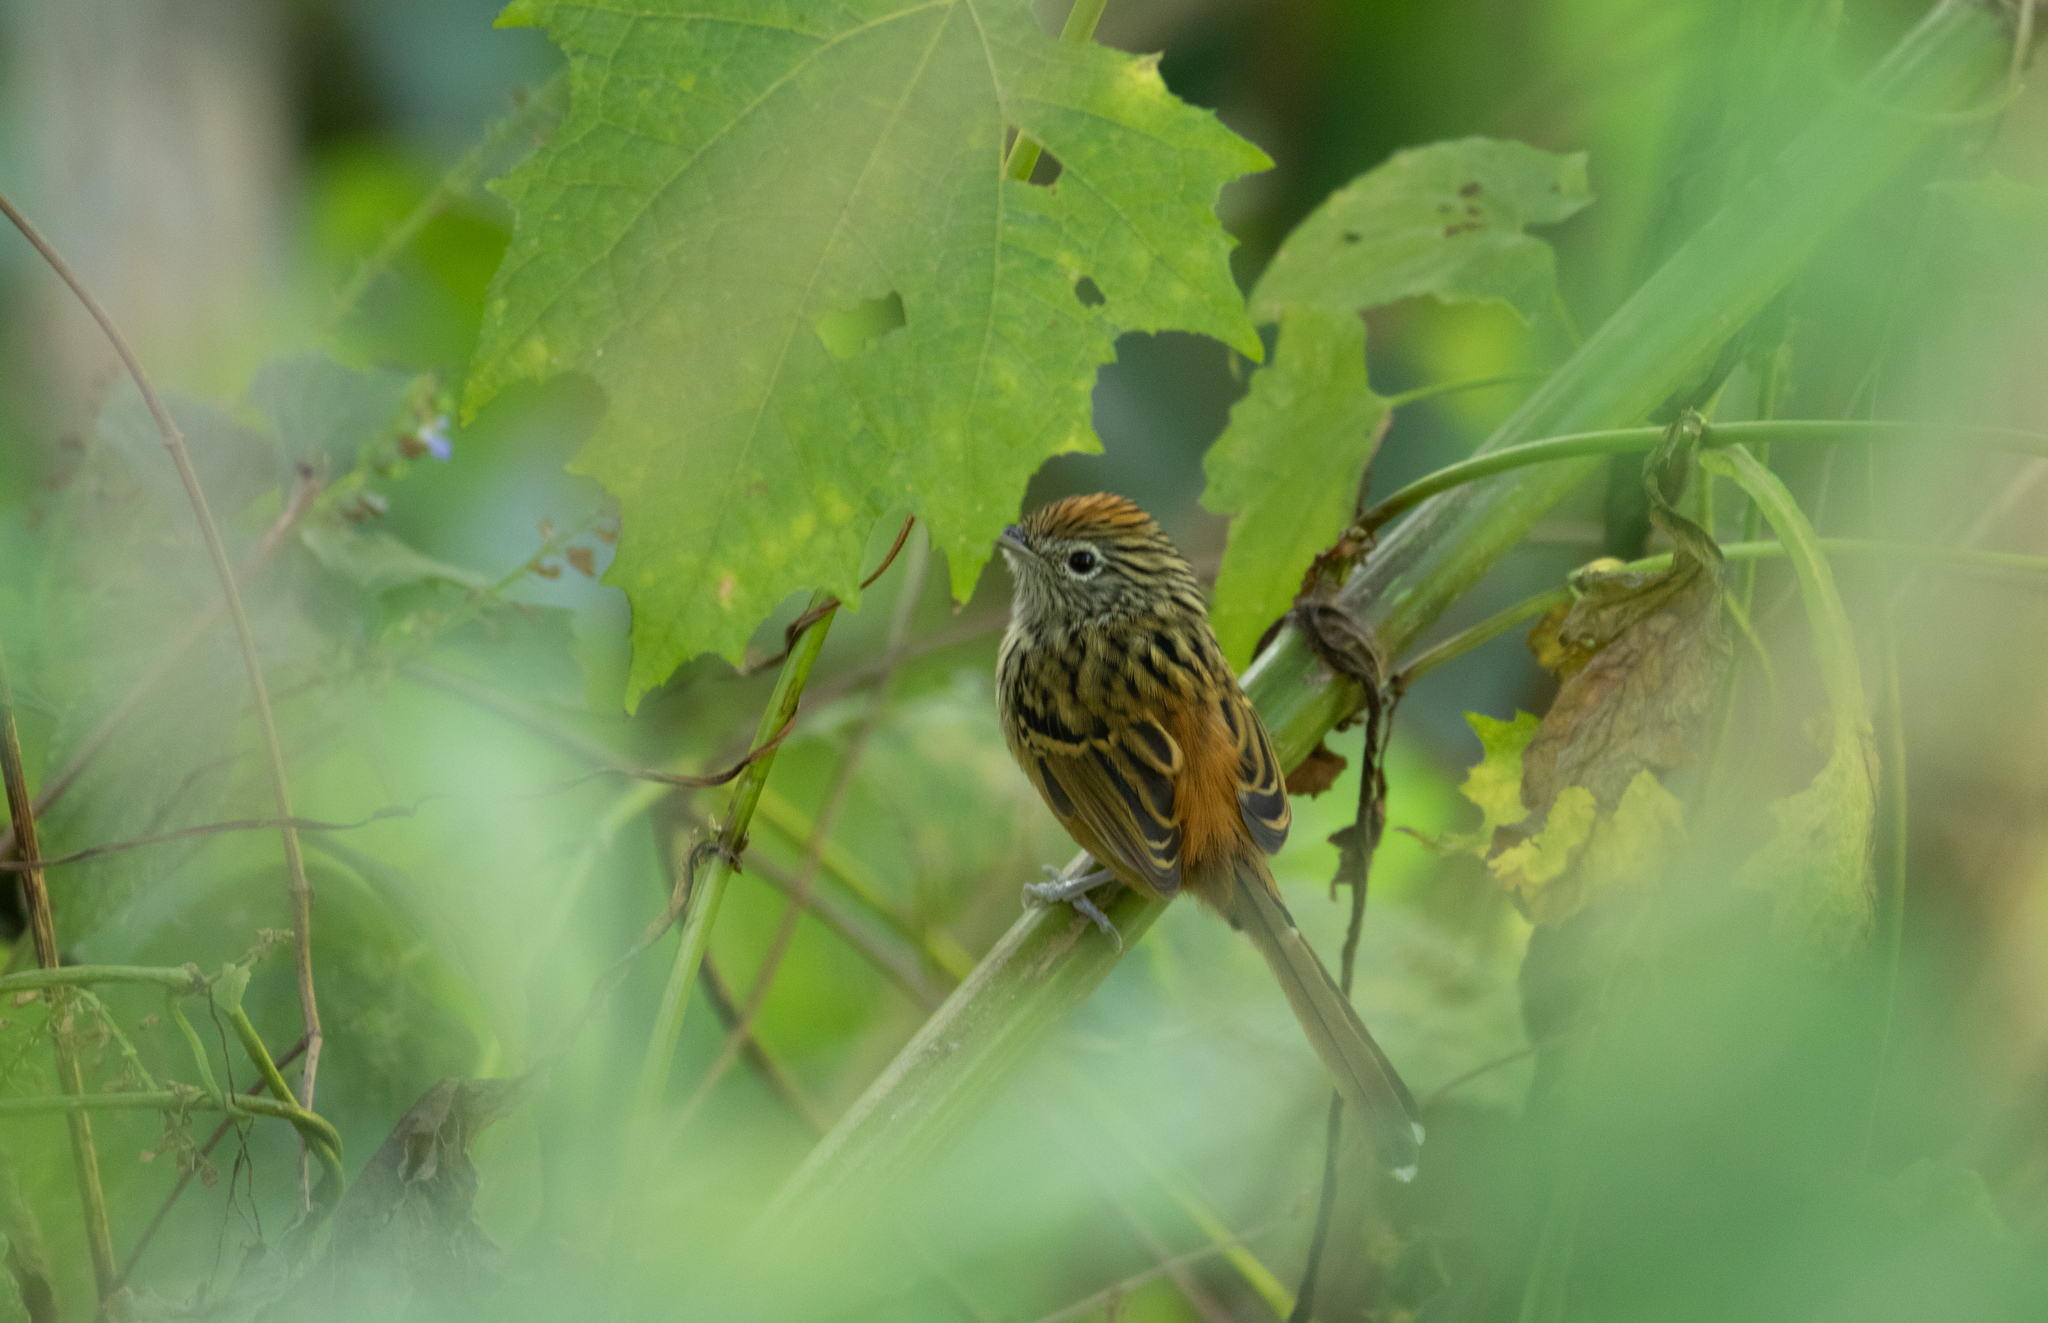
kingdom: Animalia
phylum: Chordata
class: Aves
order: Passeriformes
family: Thamnophilidae
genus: Drymophila
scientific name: Drymophila hellmayri
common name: Santa marta antbird
